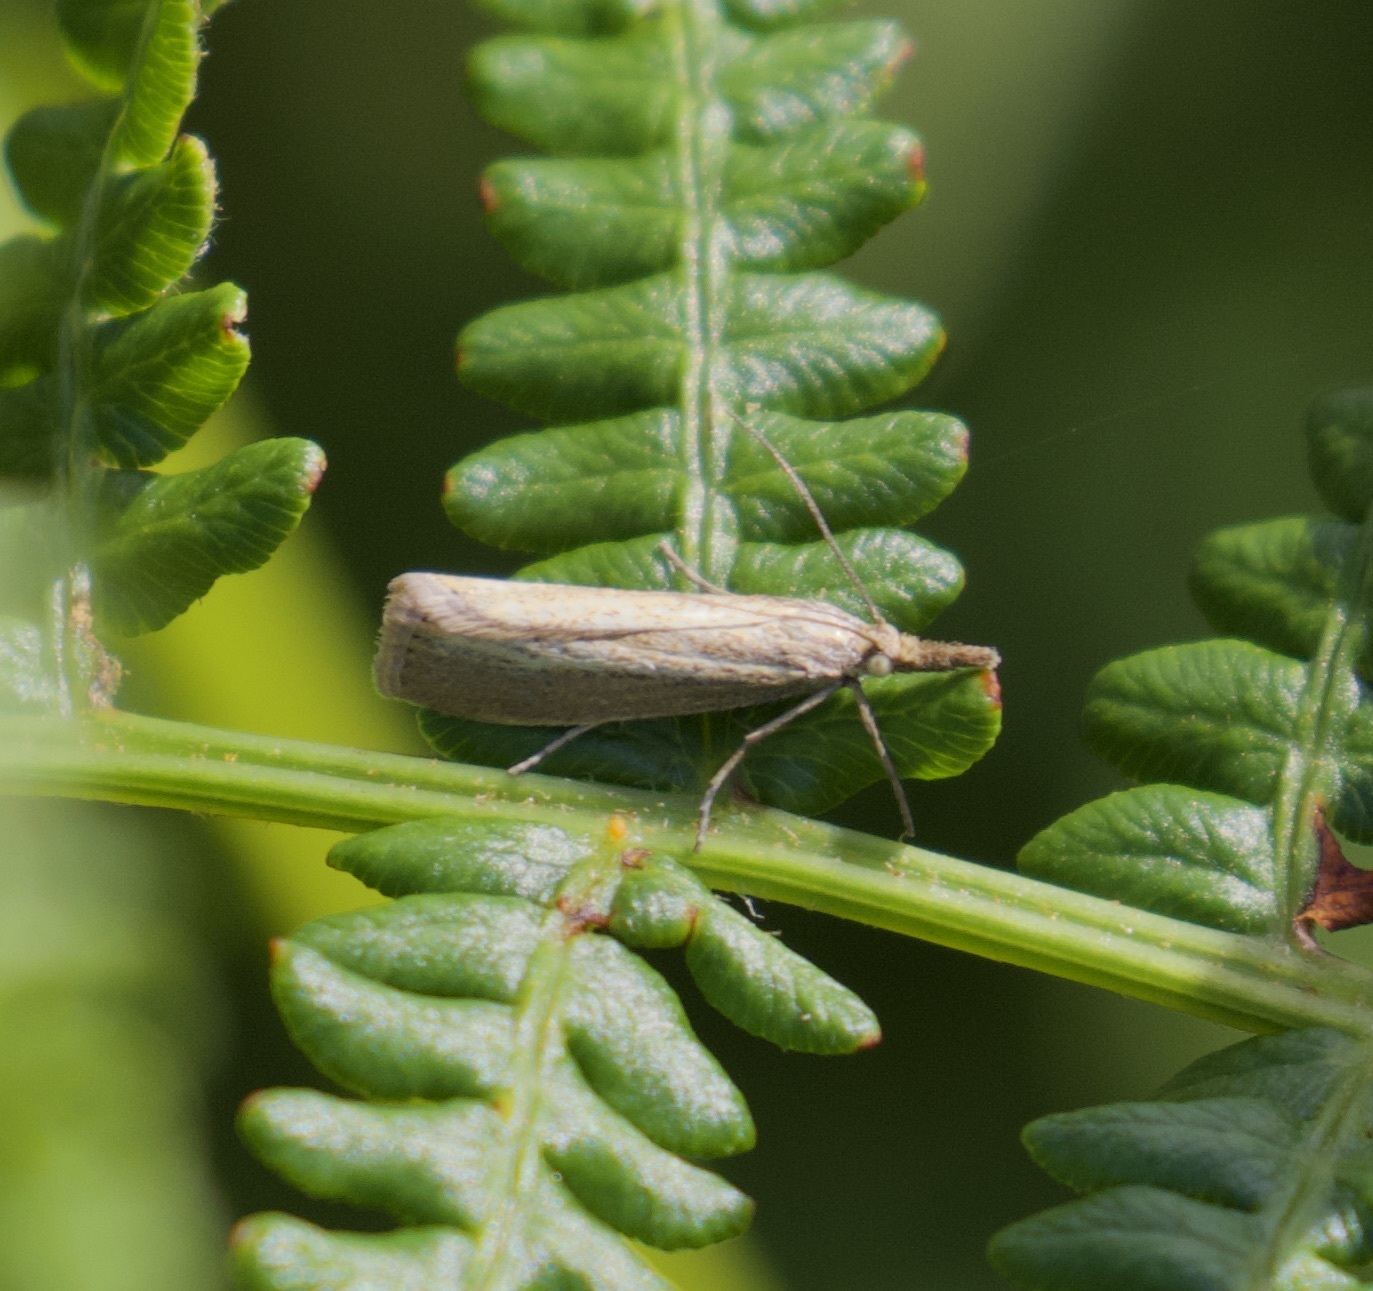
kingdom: Animalia
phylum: Arthropoda
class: Insecta
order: Lepidoptera
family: Crambidae
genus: Agriphila
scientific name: Agriphila straminella
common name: Straw grass-veneer
